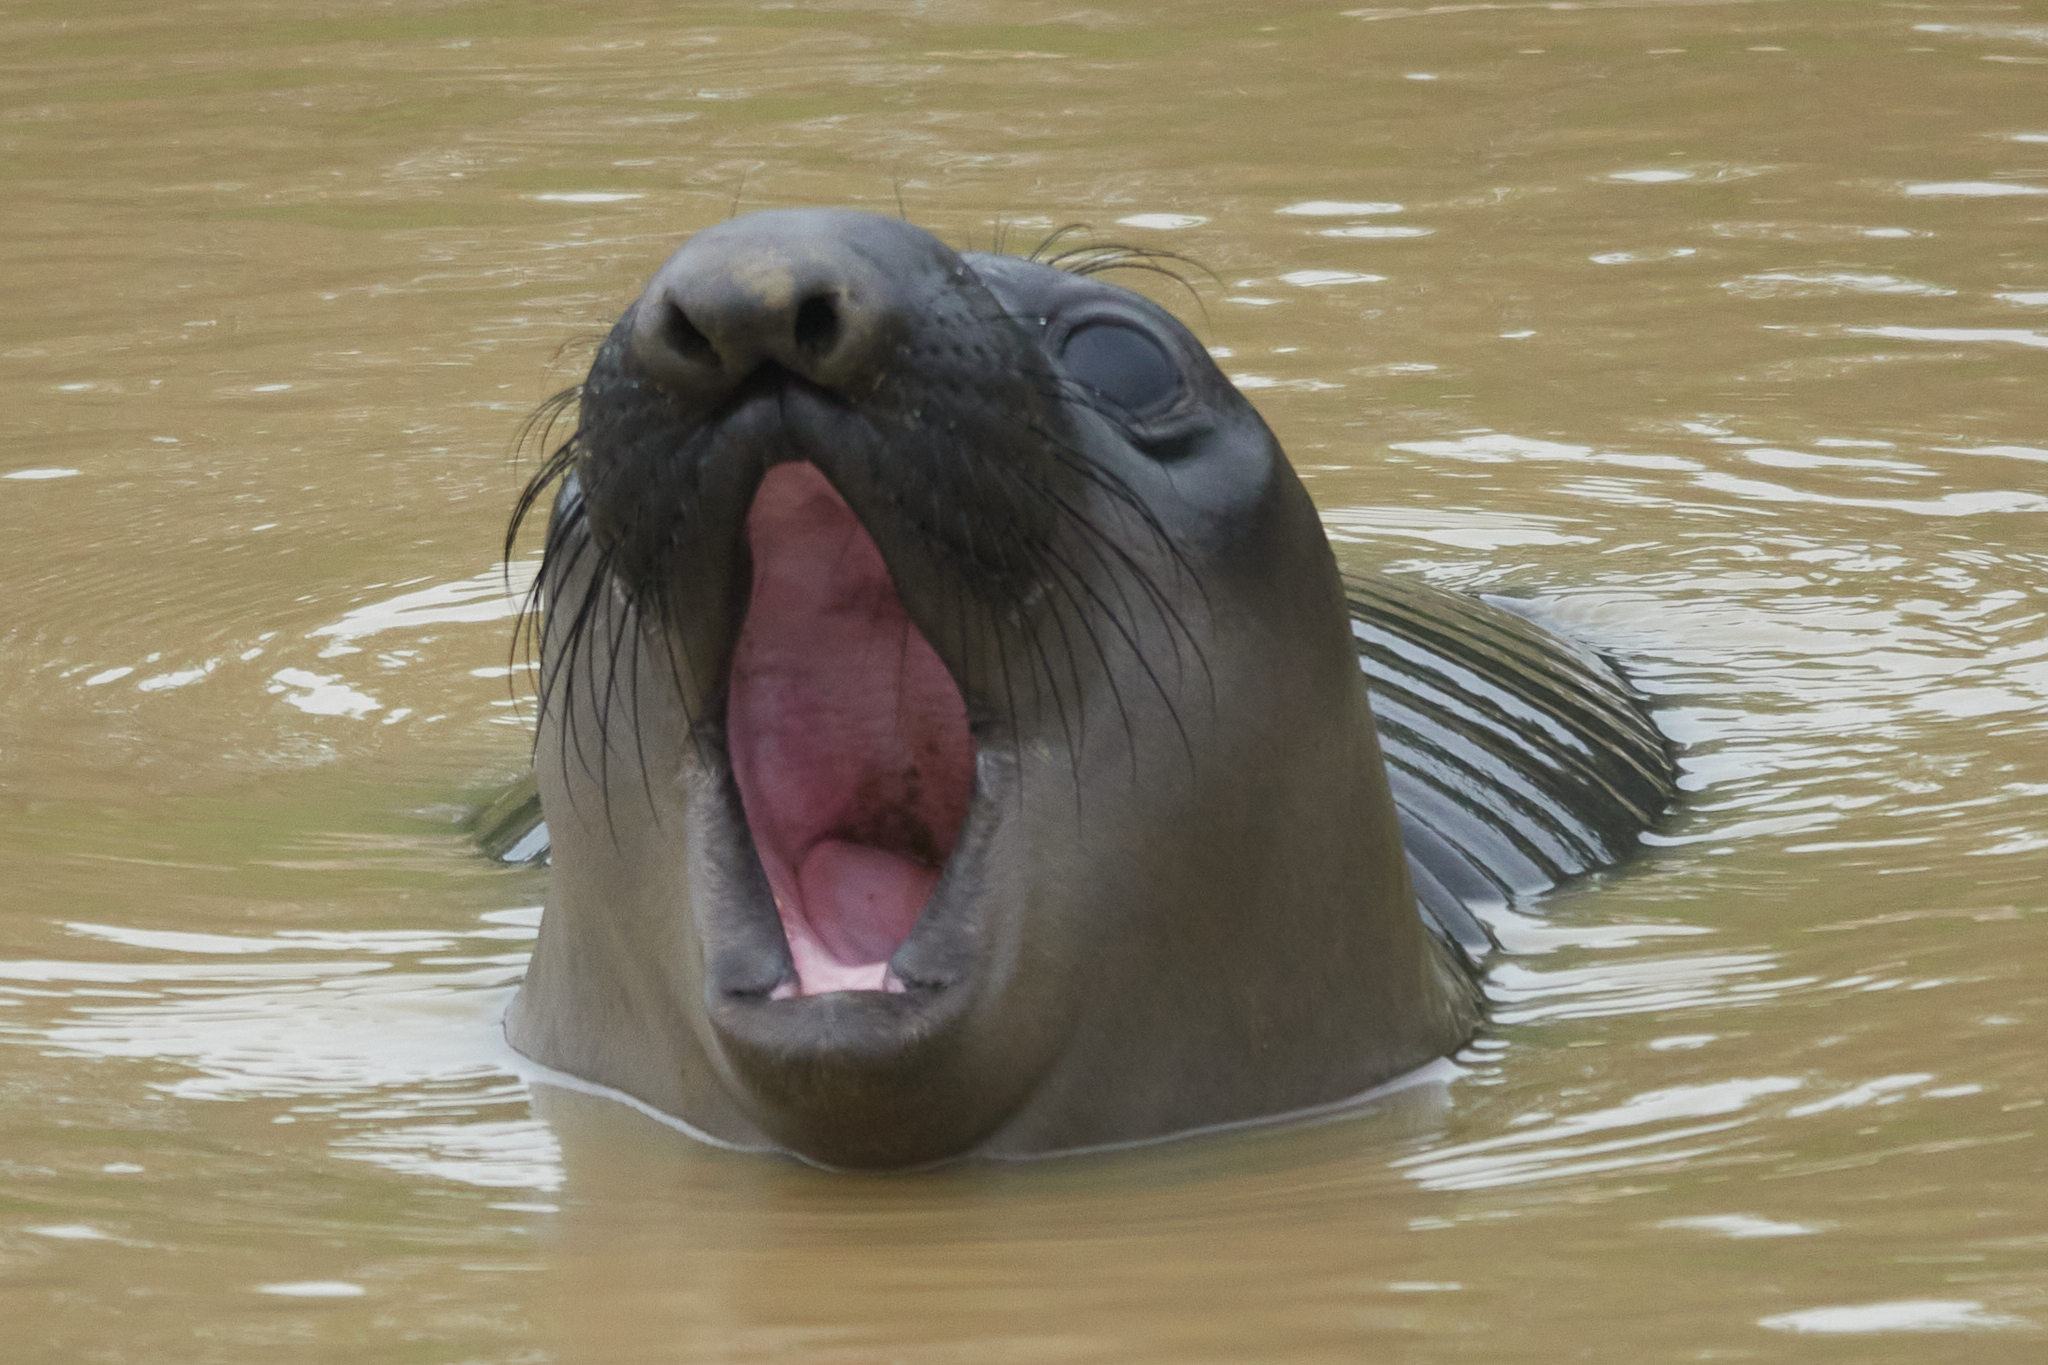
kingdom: Animalia
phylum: Chordata
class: Mammalia
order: Carnivora
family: Phocidae
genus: Mirounga
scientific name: Mirounga angustirostris
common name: Northern elephant seal
